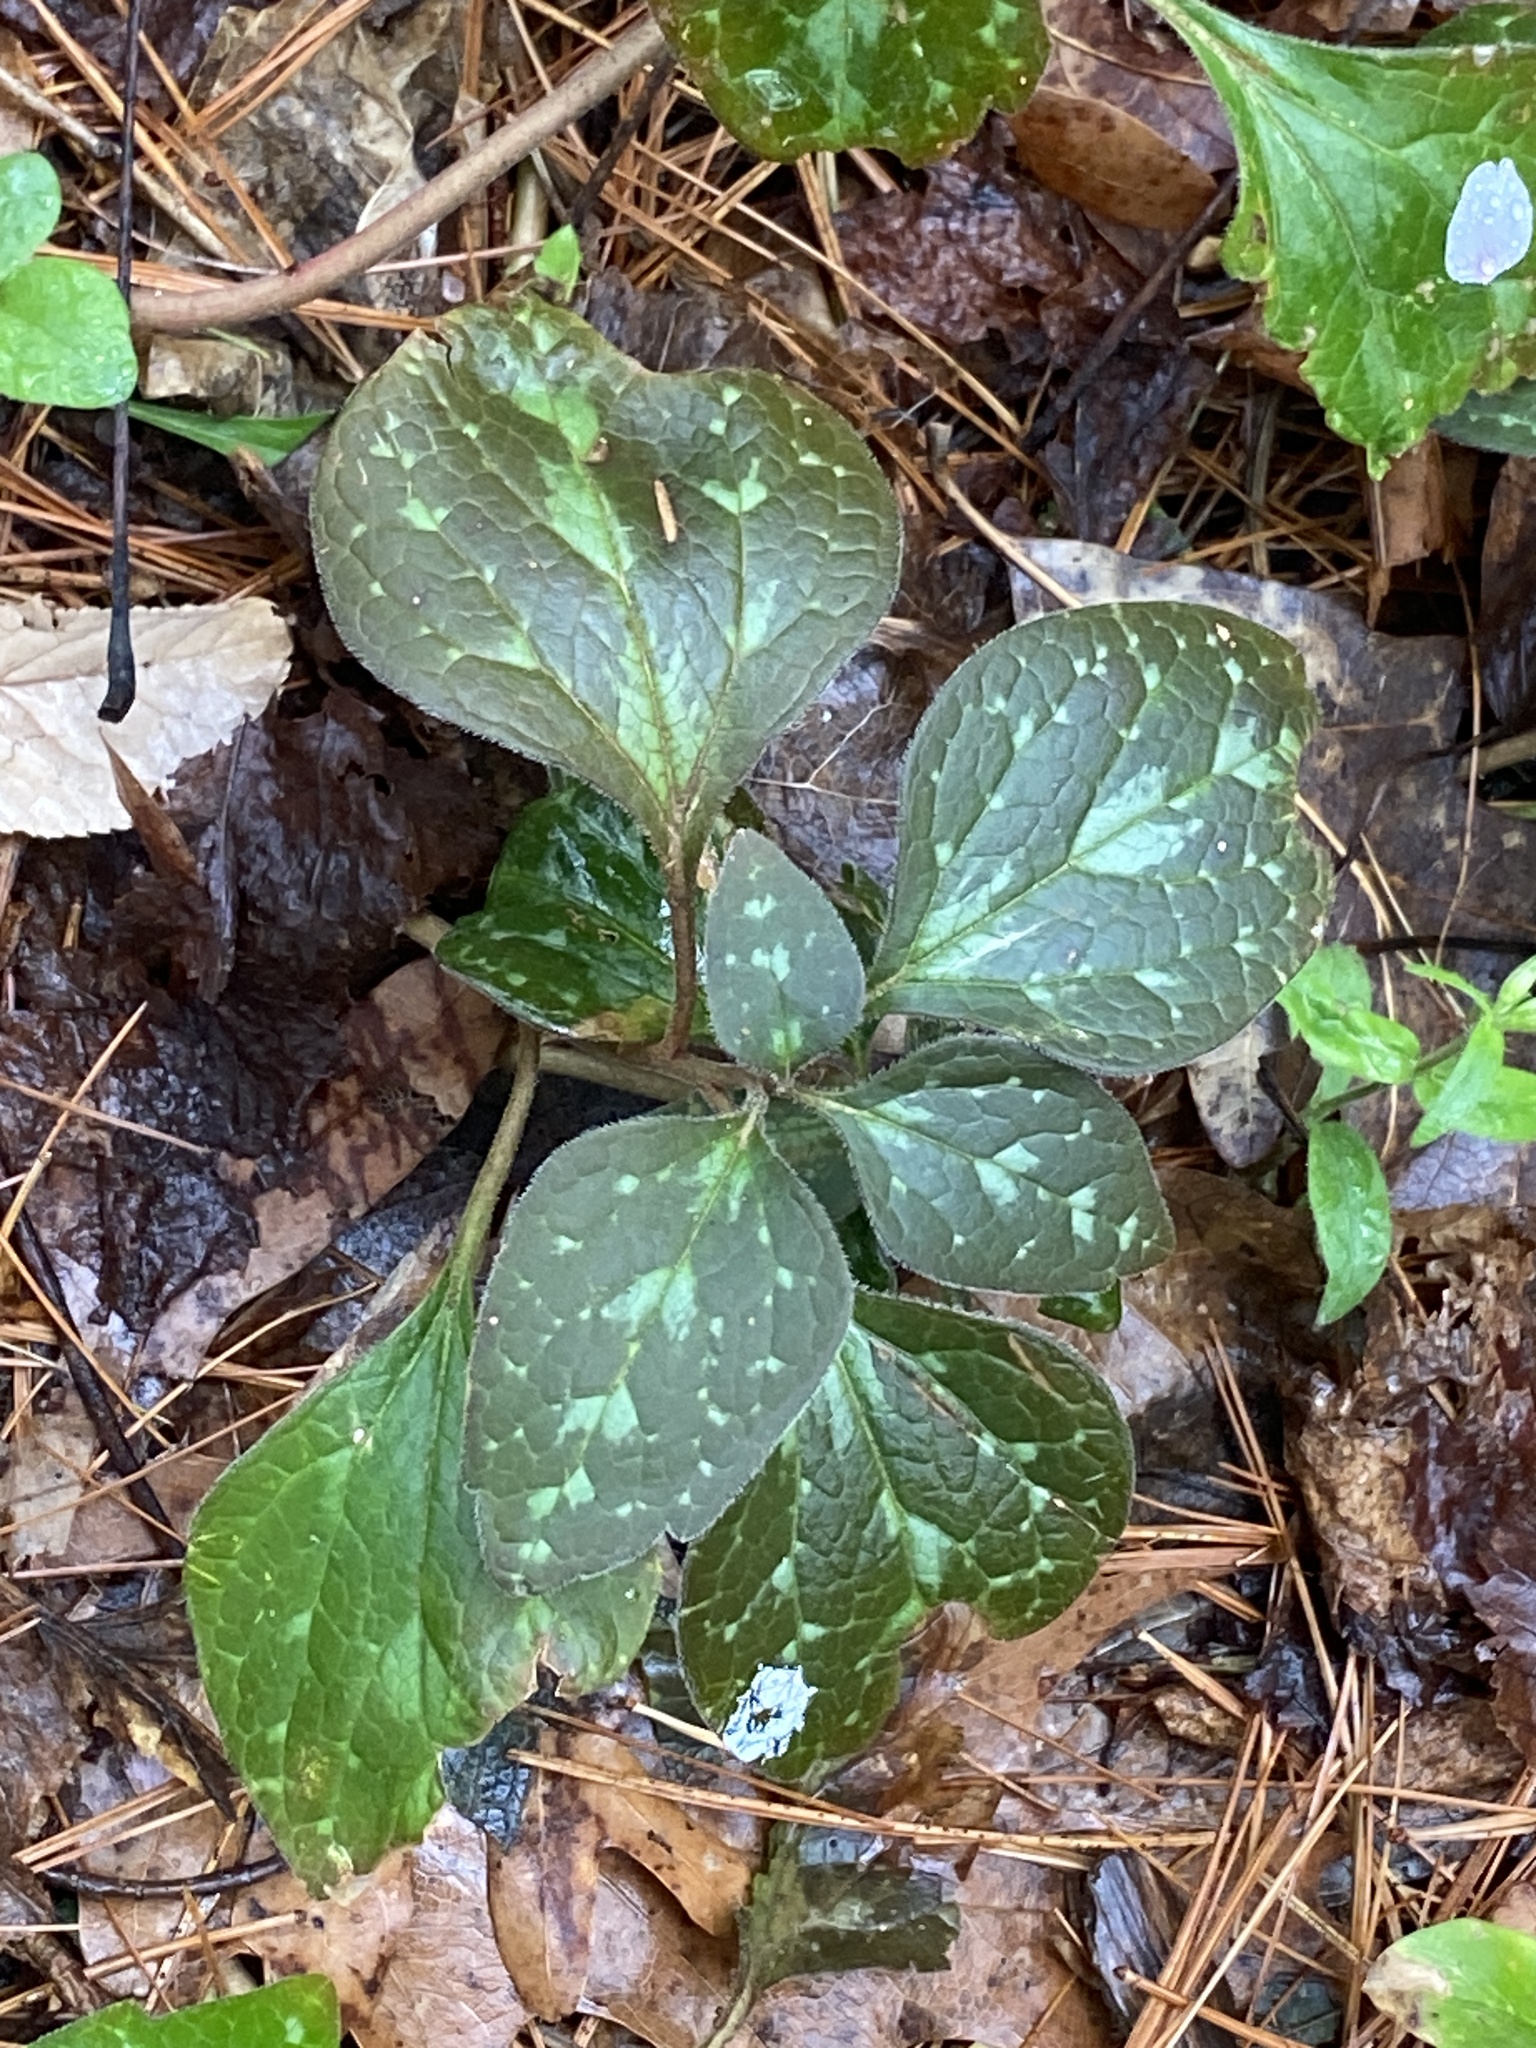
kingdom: Plantae
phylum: Tracheophyta
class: Magnoliopsida
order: Buxales
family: Buxaceae
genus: Pachysandra
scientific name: Pachysandra procumbens
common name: Mountain-spurge
